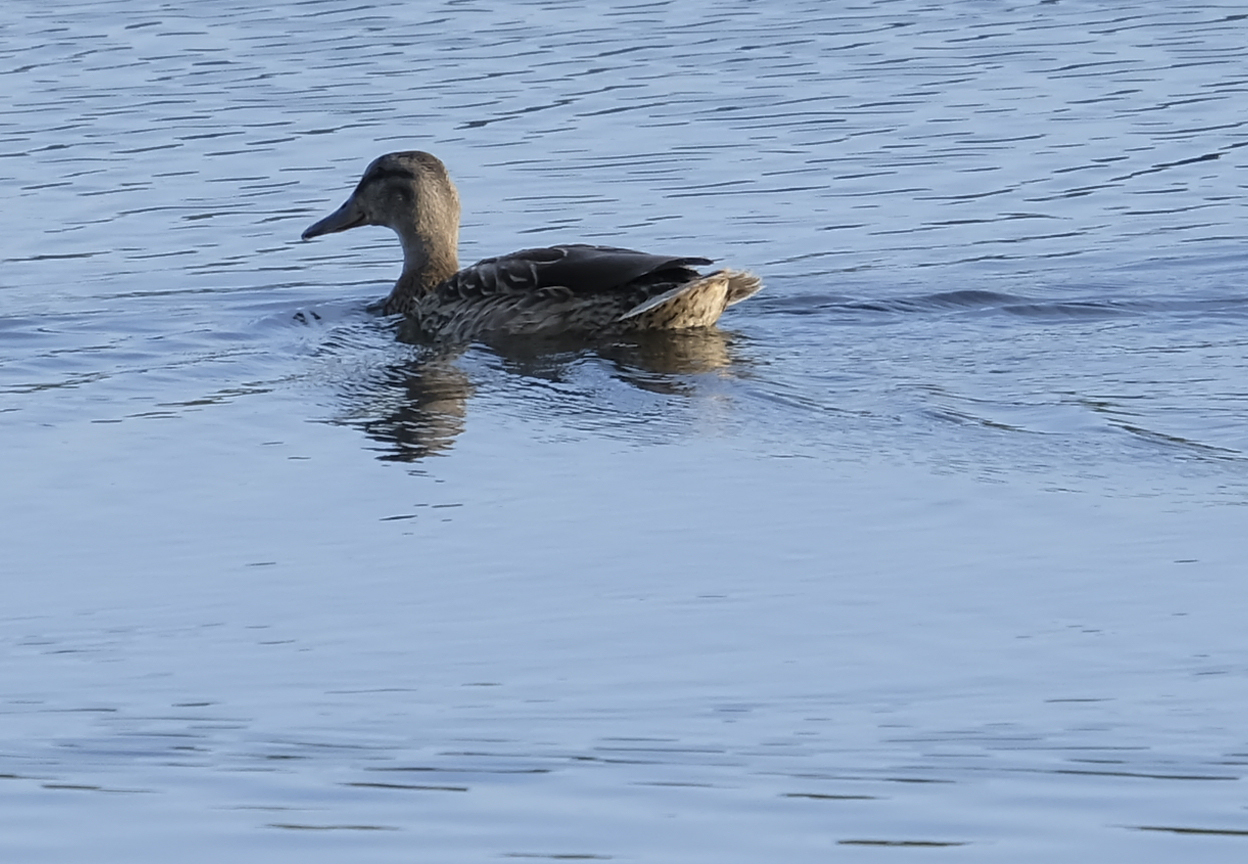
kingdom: Animalia
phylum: Chordata
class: Aves
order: Anseriformes
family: Anatidae
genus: Anas
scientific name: Anas platyrhynchos
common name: Mallard
